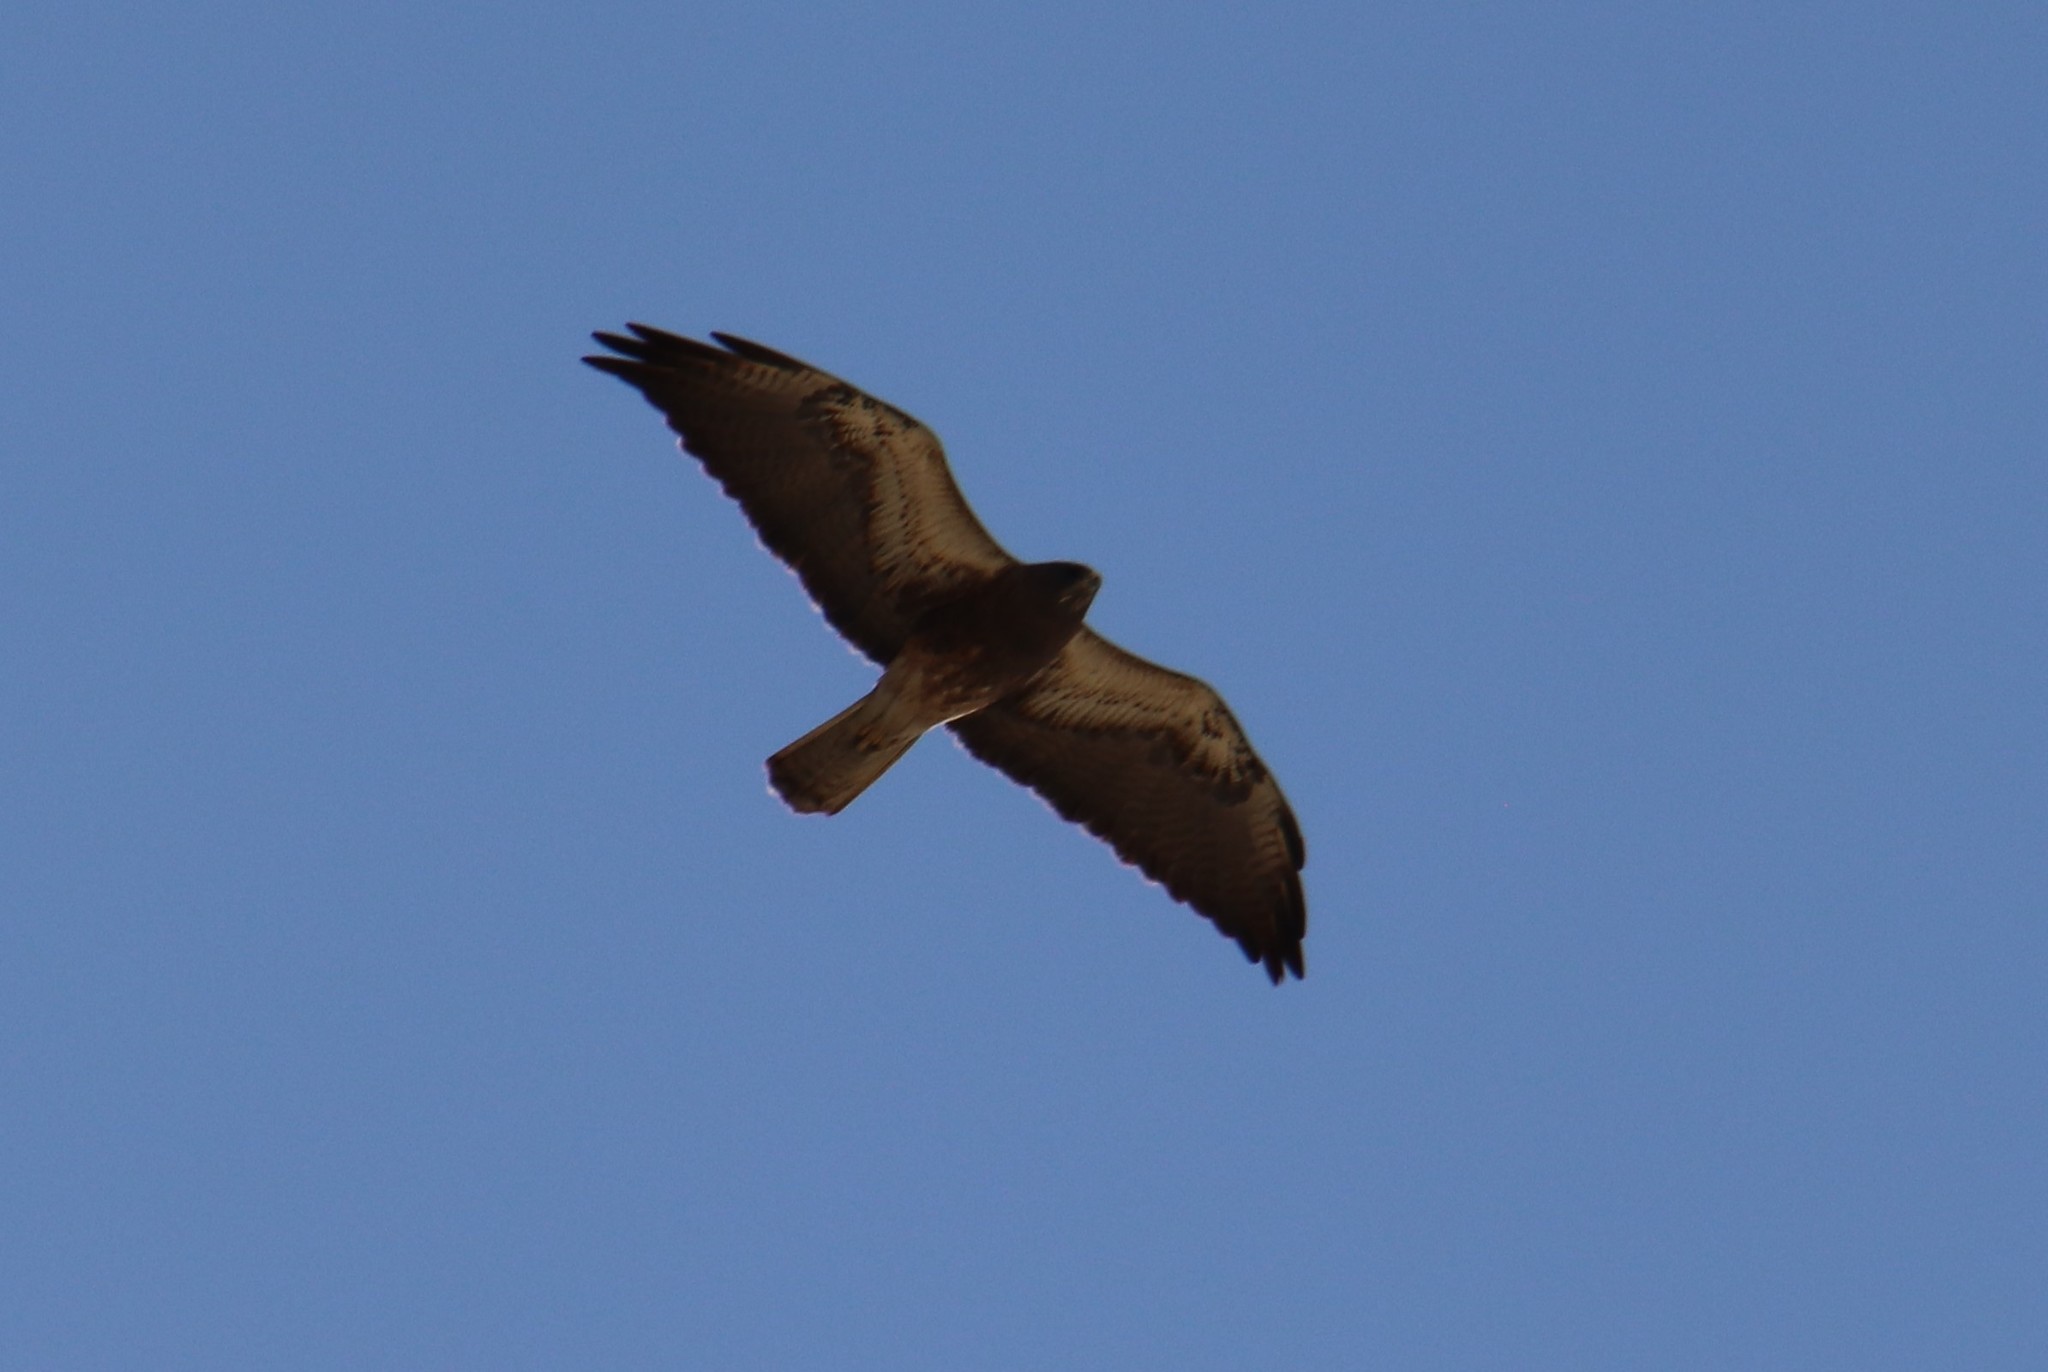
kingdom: Animalia
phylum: Chordata
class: Aves
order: Accipitriformes
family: Accipitridae
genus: Buteo
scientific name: Buteo swainsoni
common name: Swainson's hawk
